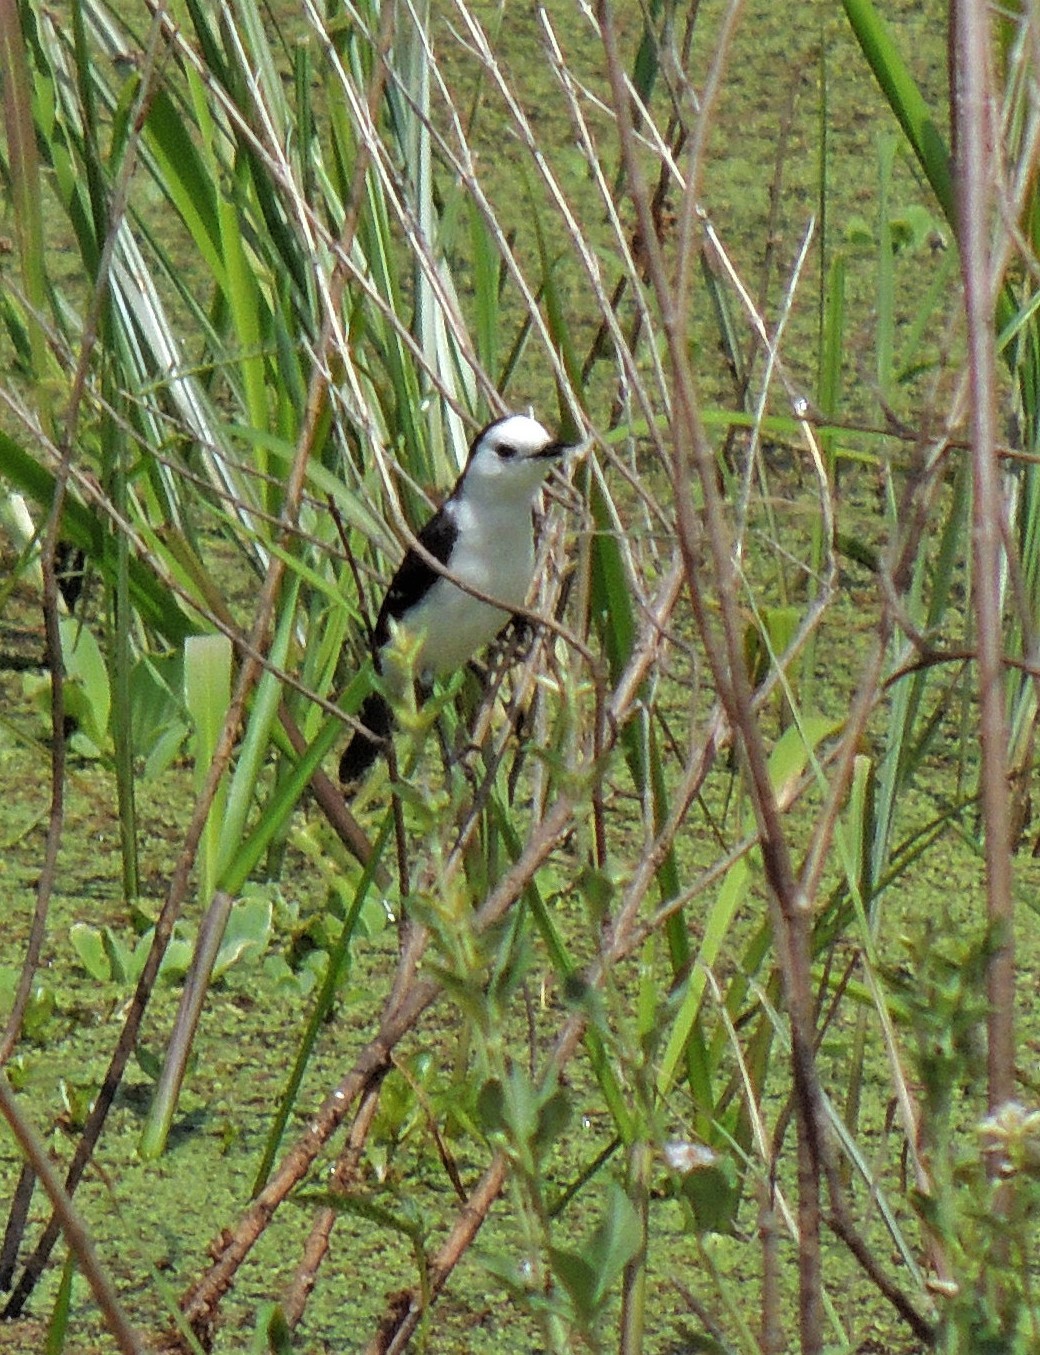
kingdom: Animalia
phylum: Chordata
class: Aves
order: Passeriformes
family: Tyrannidae
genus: Fluvicola
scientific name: Fluvicola pica
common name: Pied water-tyrant
